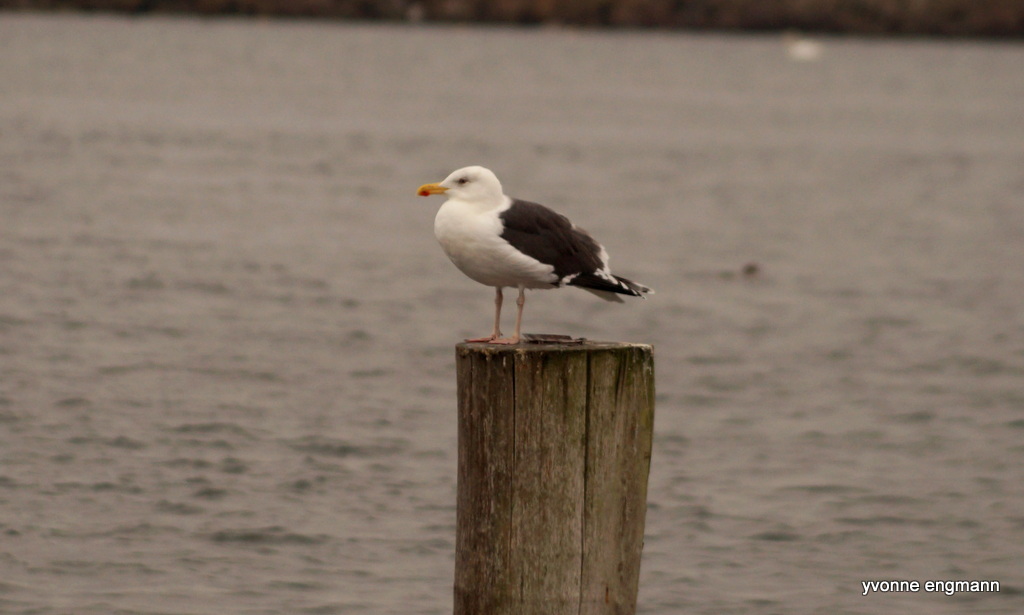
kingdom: Animalia
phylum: Chordata
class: Aves
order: Charadriiformes
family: Laridae
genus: Larus
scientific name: Larus marinus
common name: Great black-backed gull
